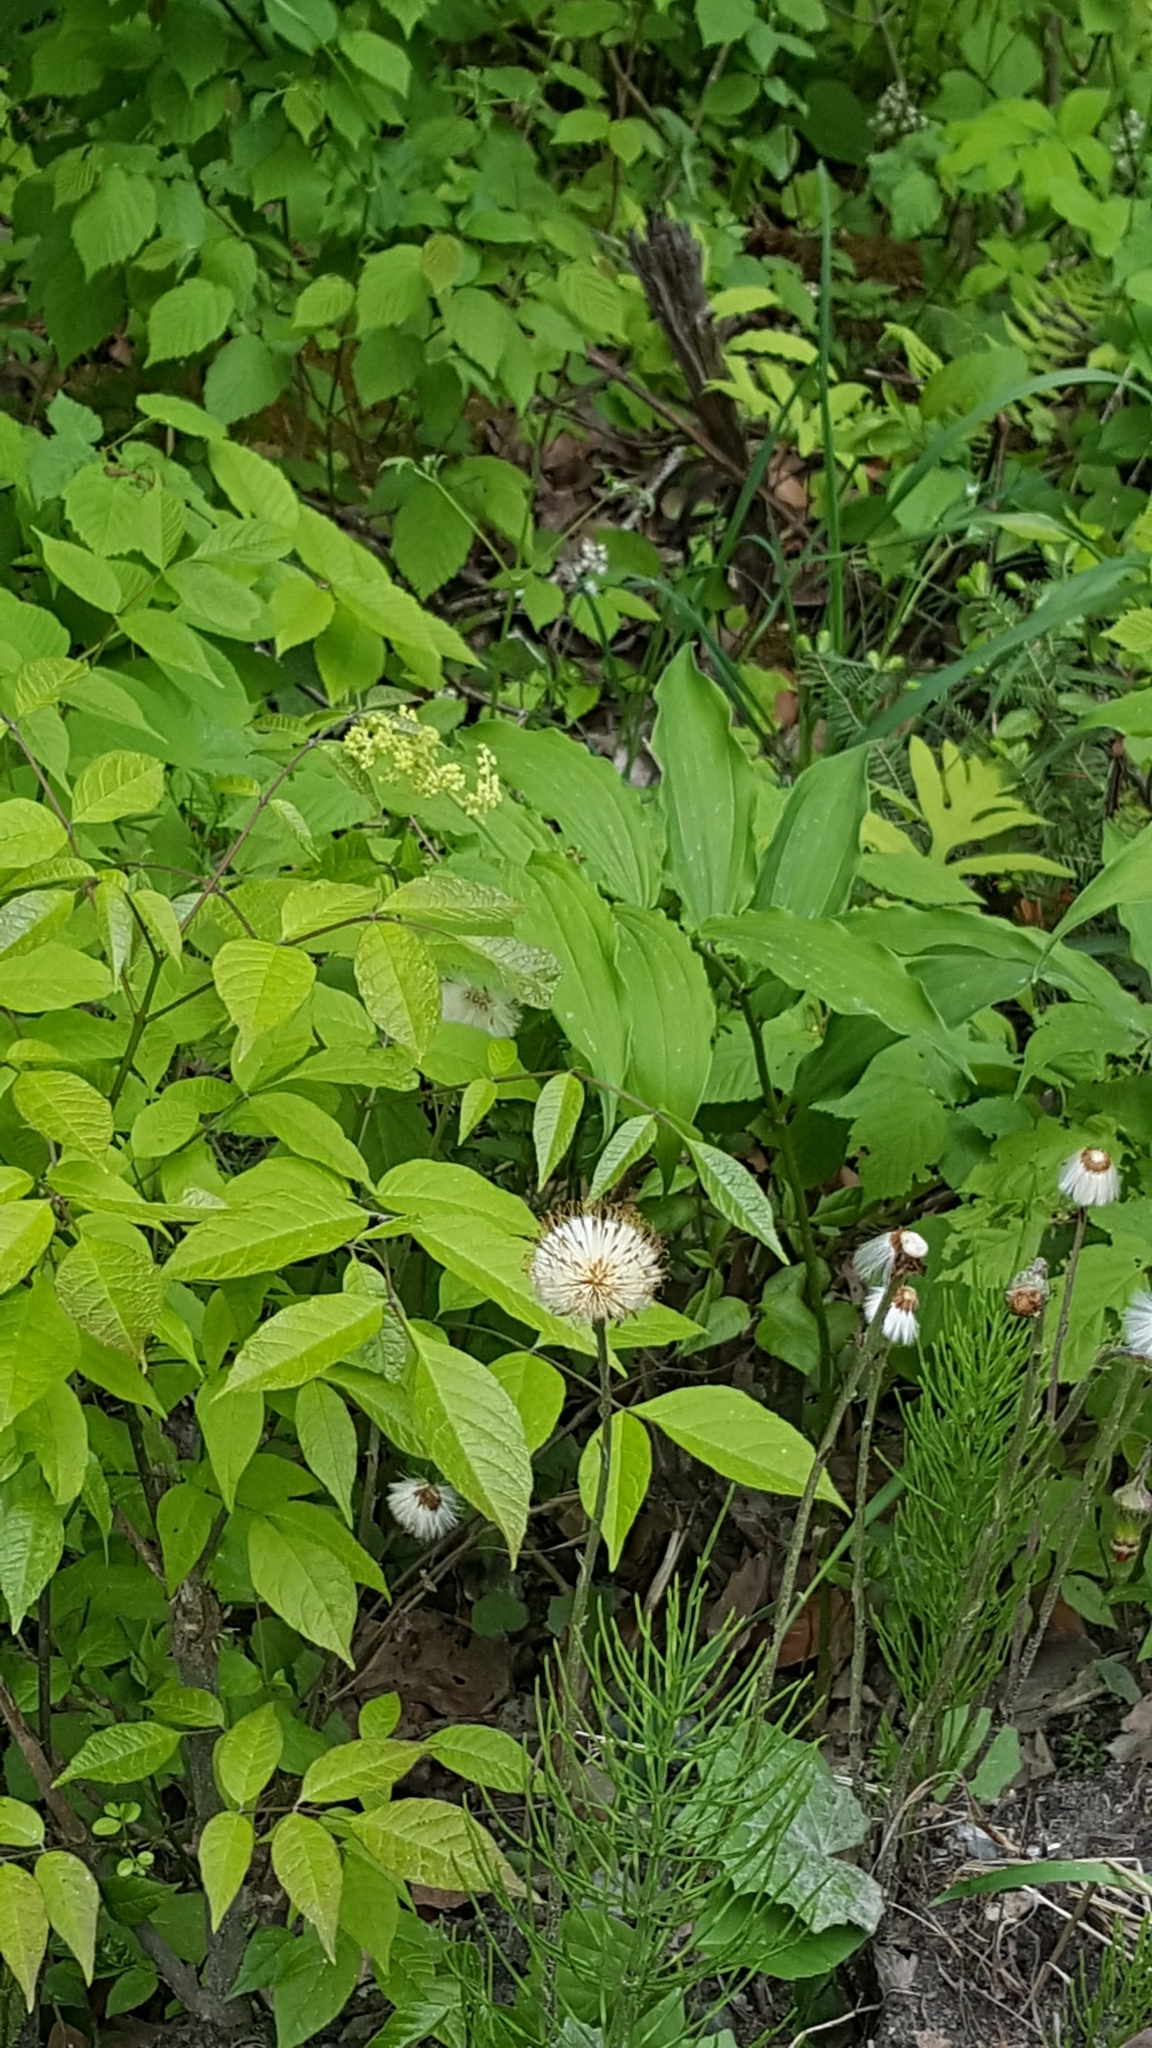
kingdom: Plantae
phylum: Tracheophyta
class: Liliopsida
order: Asparagales
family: Asparagaceae
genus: Maianthemum
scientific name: Maianthemum racemosum
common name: False spikenard
